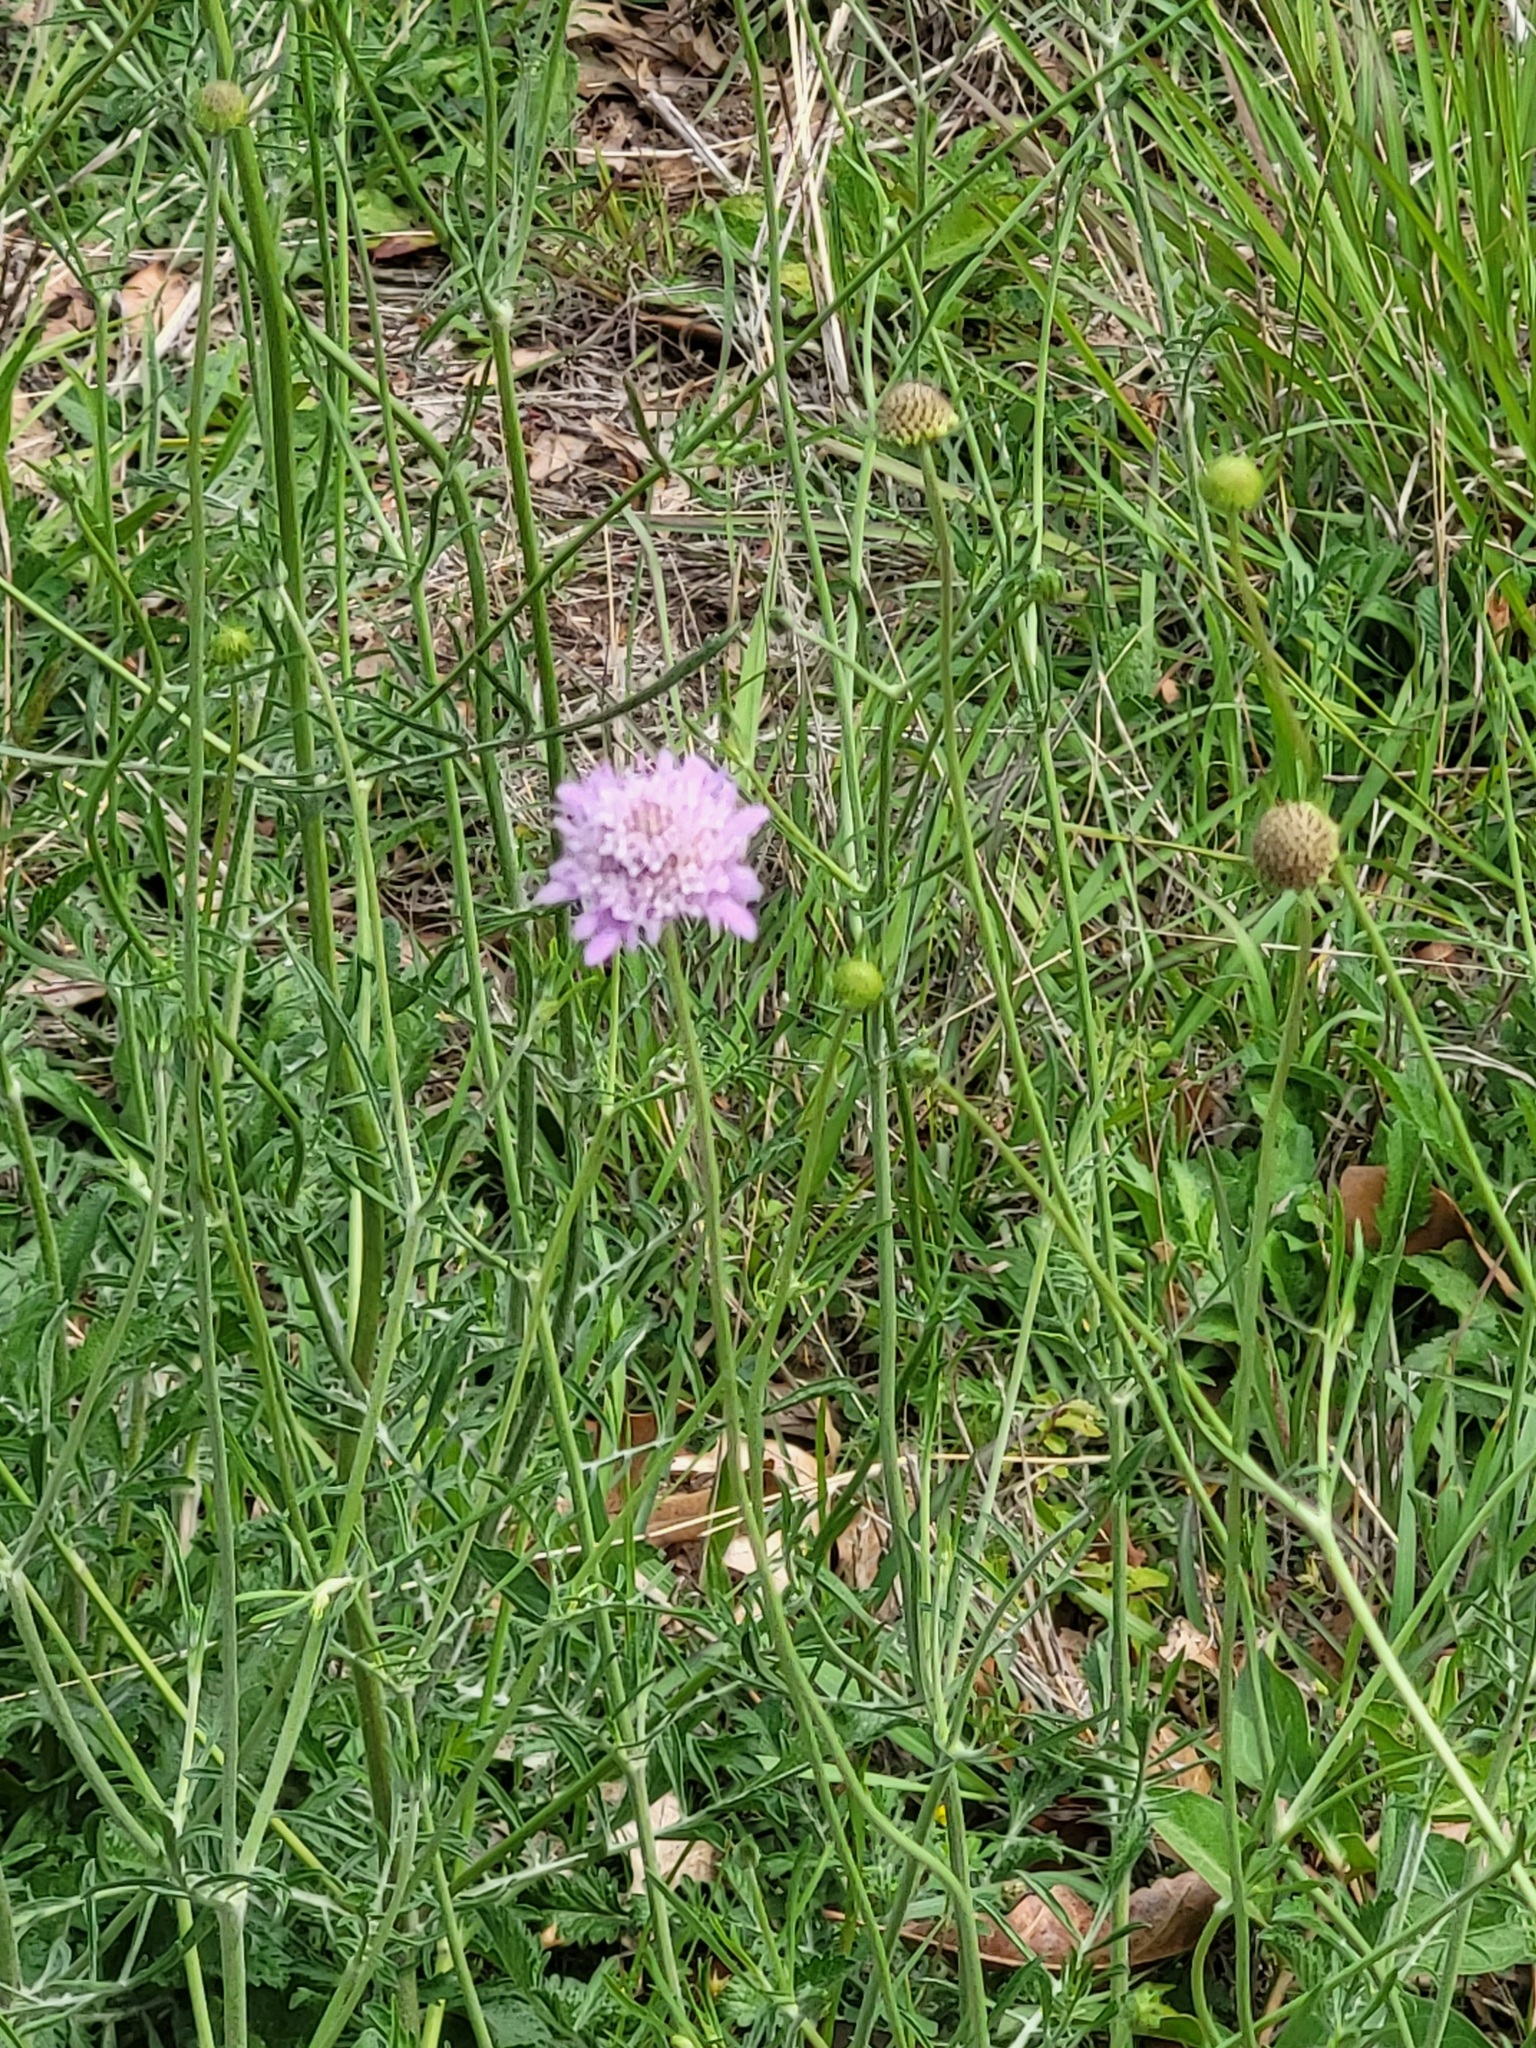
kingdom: Plantae
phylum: Tracheophyta
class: Magnoliopsida
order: Dipsacales
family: Caprifoliaceae
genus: Sixalix
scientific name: Sixalix atropurpurea
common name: Sweet scabious
